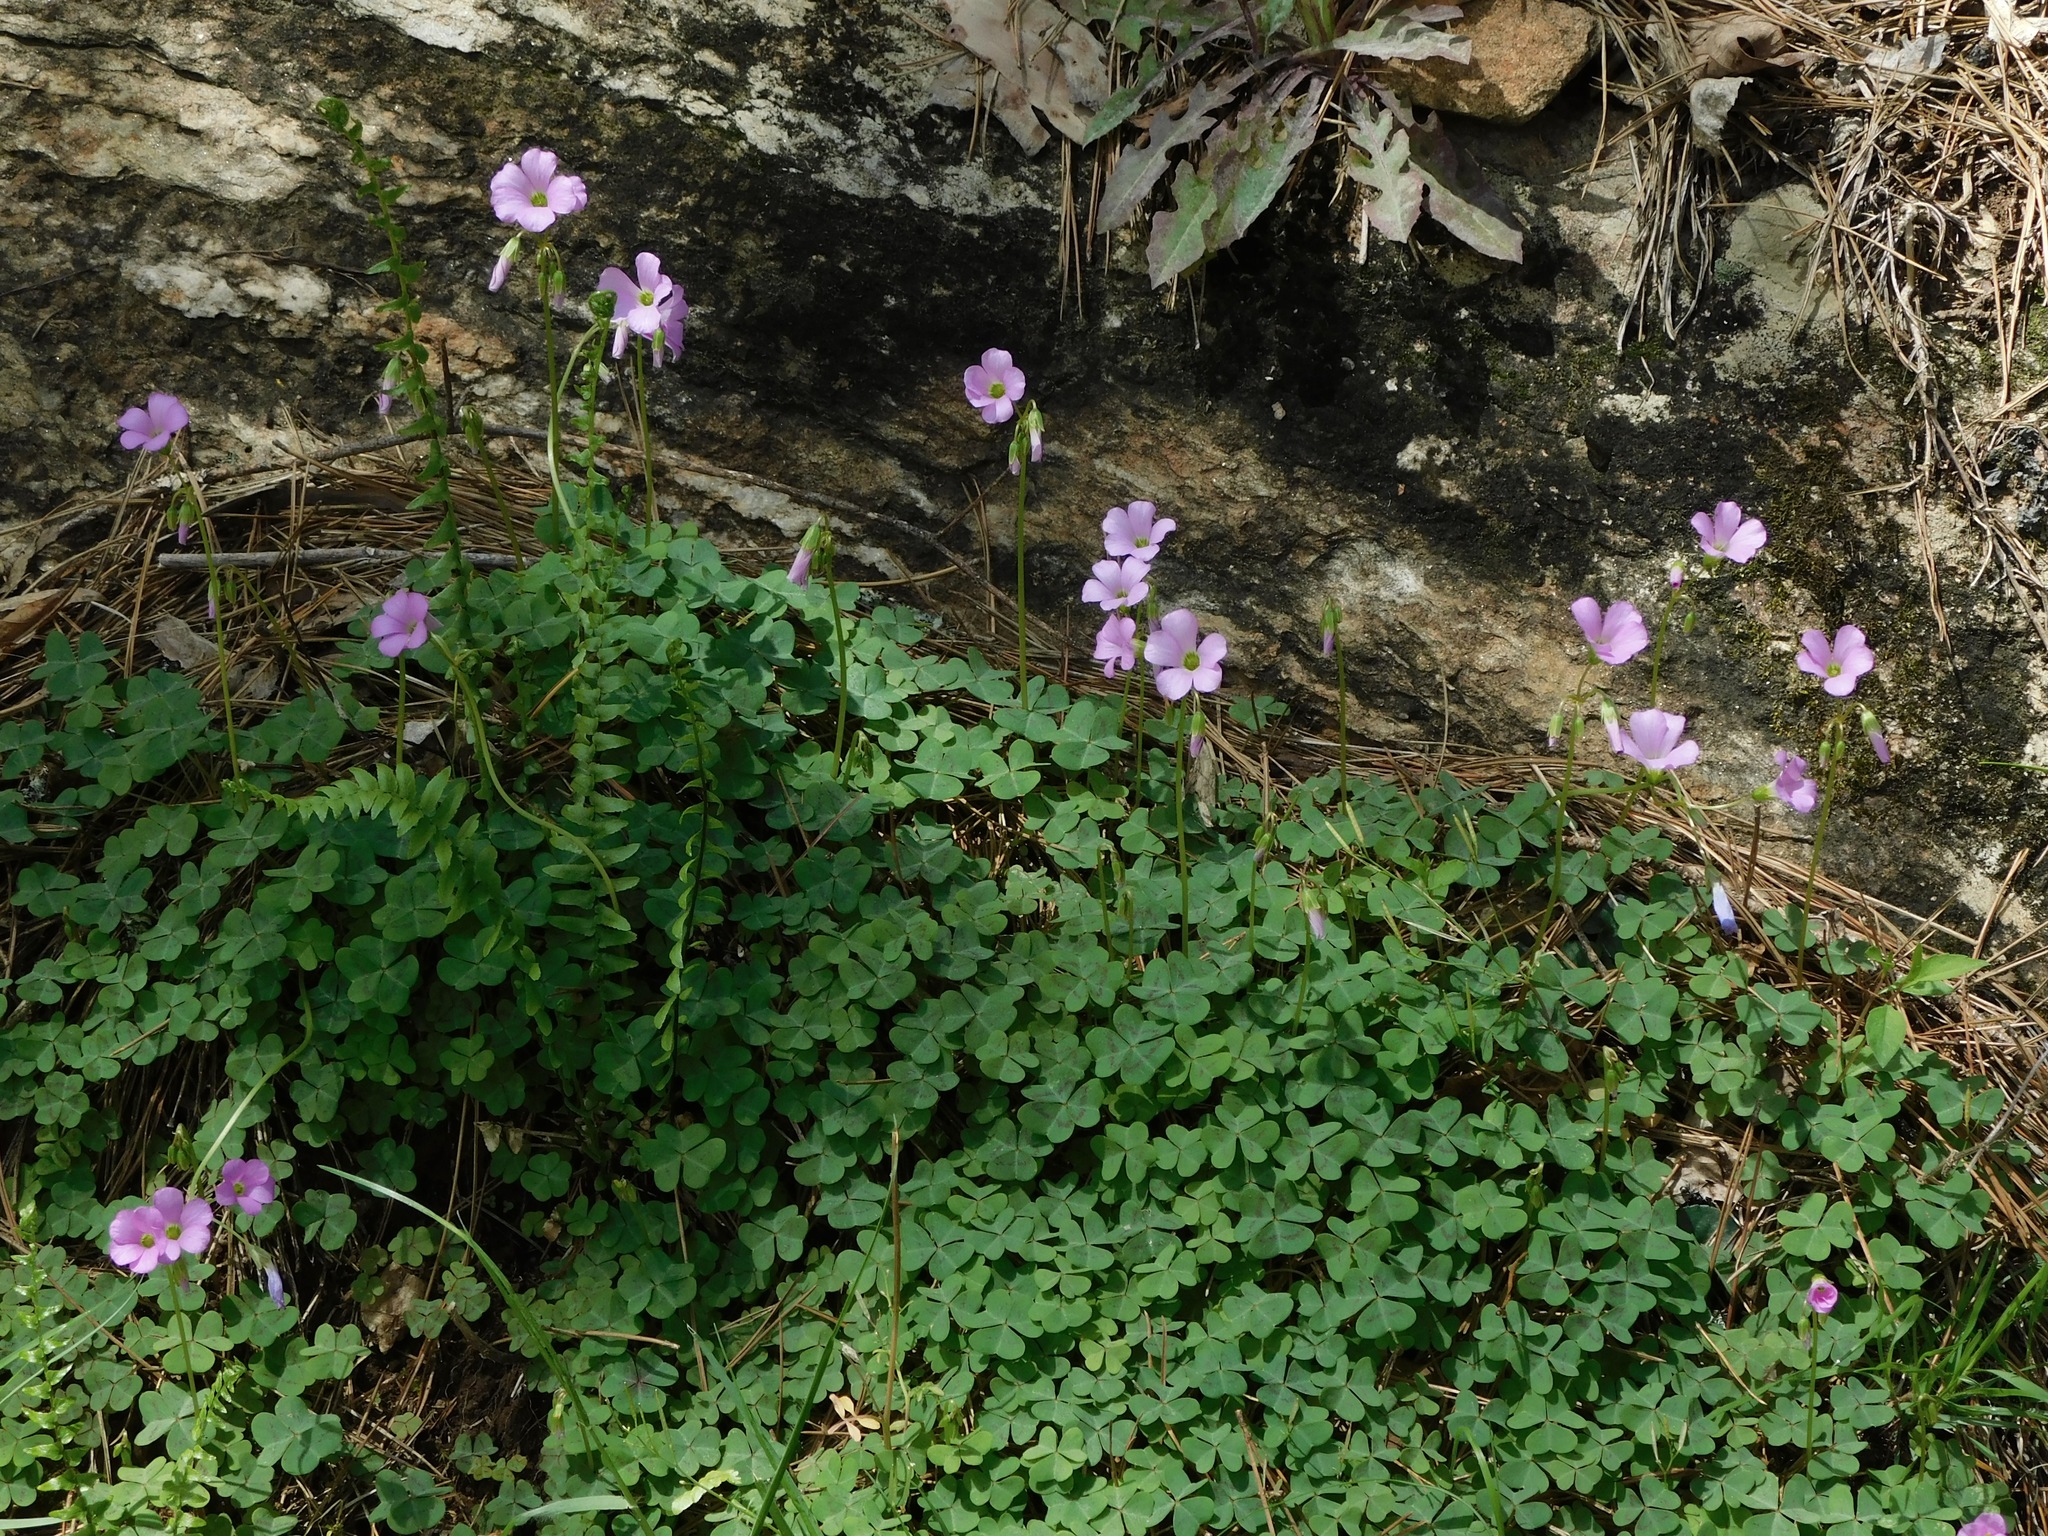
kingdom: Plantae
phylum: Tracheophyta
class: Magnoliopsida
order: Oxalidales
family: Oxalidaceae
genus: Oxalis
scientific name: Oxalis violacea
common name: Violet wood-sorrel
